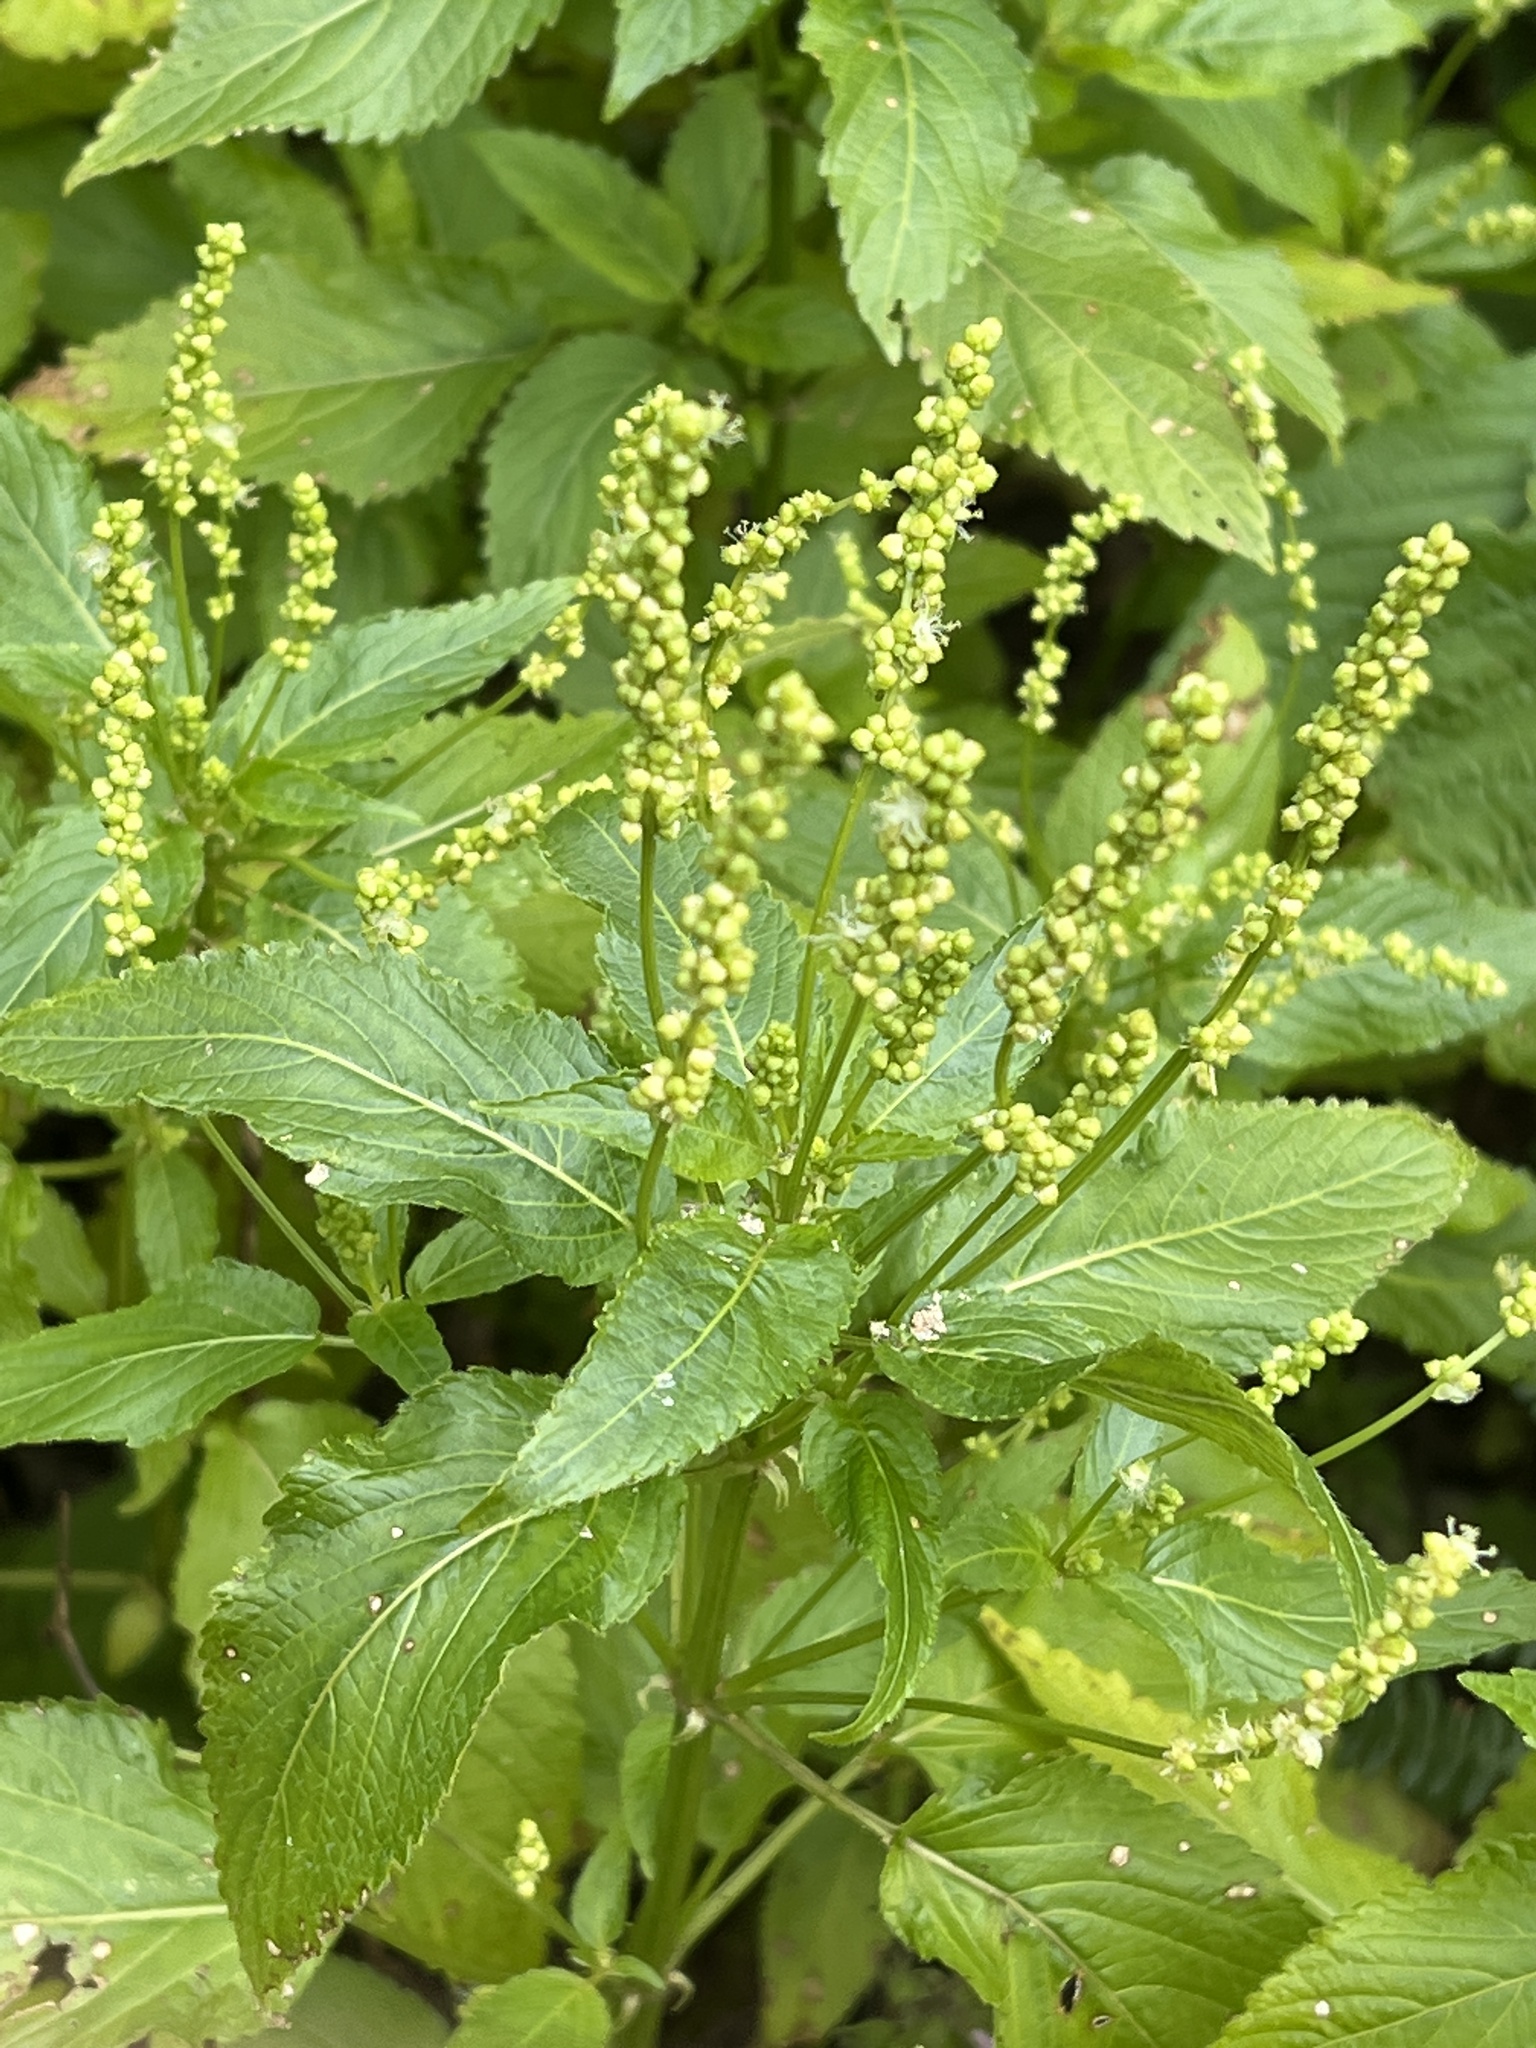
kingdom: Plantae
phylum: Tracheophyta
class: Magnoliopsida
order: Malpighiales
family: Euphorbiaceae
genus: Mercurialis
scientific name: Mercurialis annua
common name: Annual mercury
